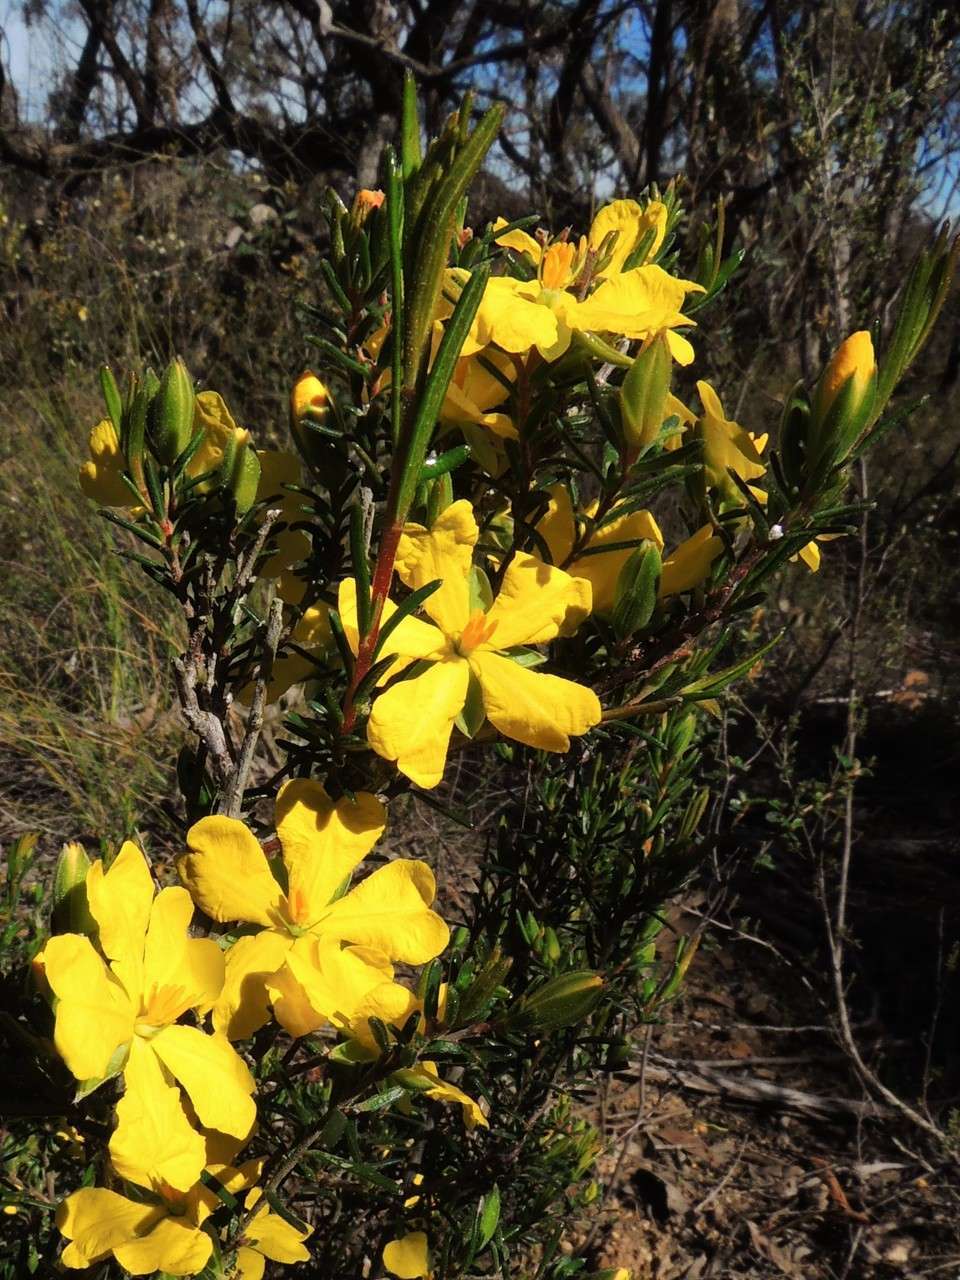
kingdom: Plantae
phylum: Tracheophyta
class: Magnoliopsida
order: Dilleniales
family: Dilleniaceae
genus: Hibbertia
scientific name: Hibbertia riparia
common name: Erect guinea-flower
